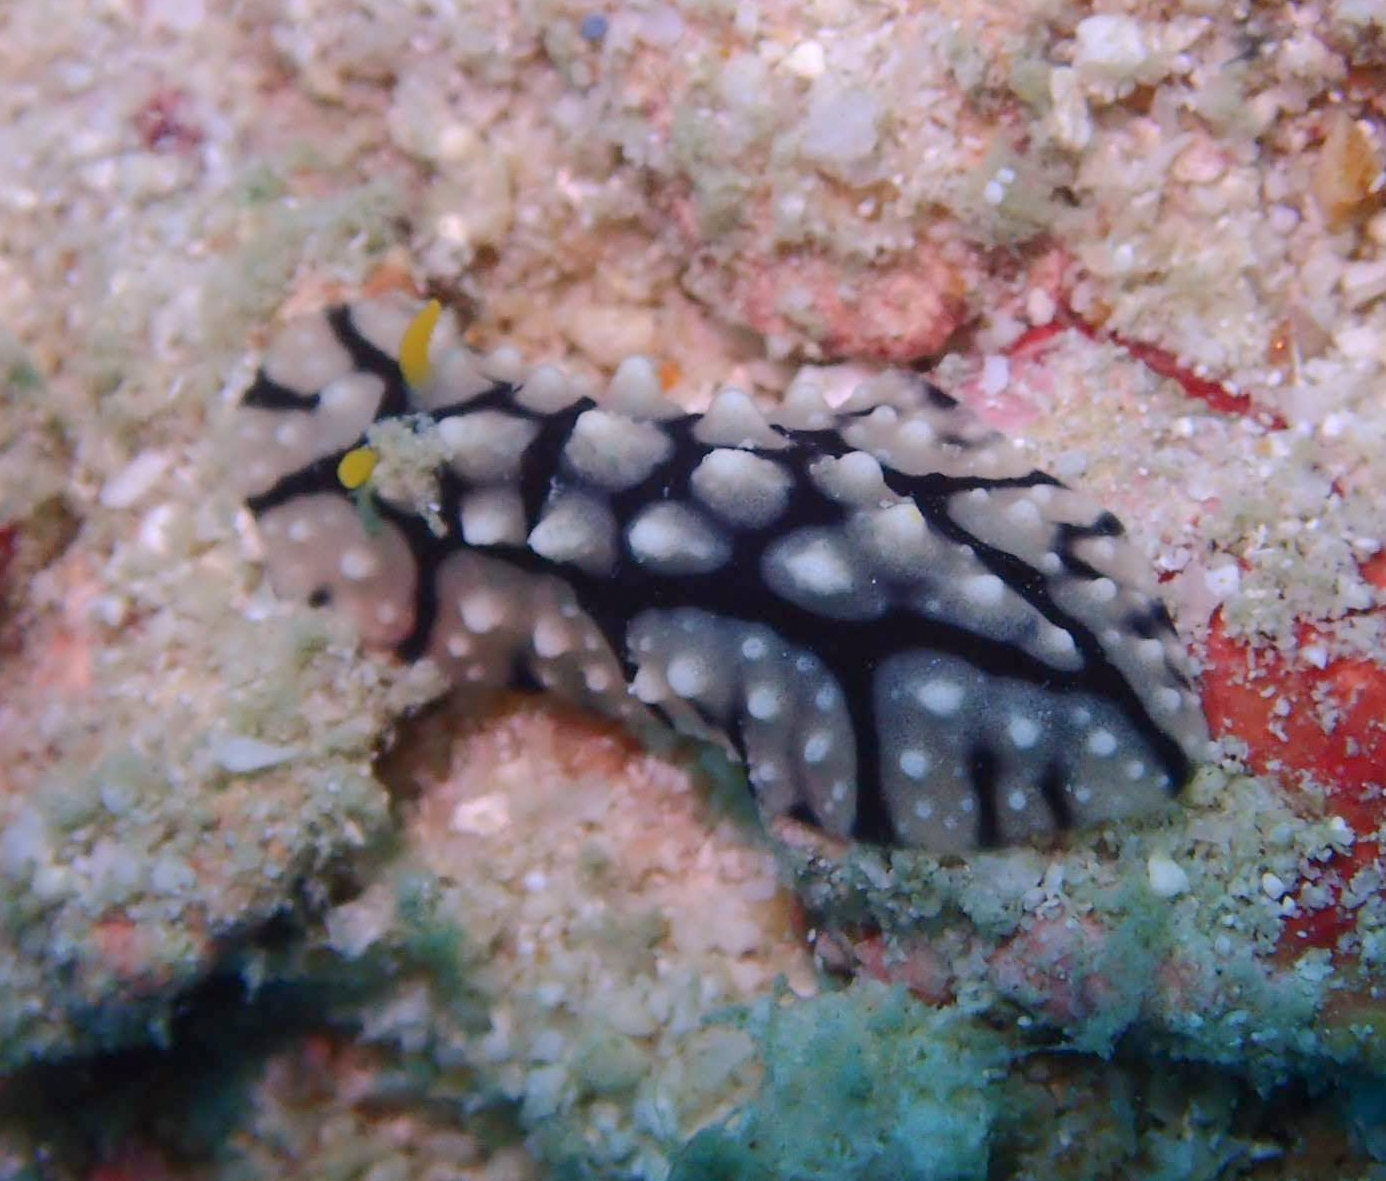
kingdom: Animalia
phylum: Mollusca
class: Gastropoda
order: Nudibranchia
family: Phyllidiidae
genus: Phyllidia
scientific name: Phyllidia elegans
